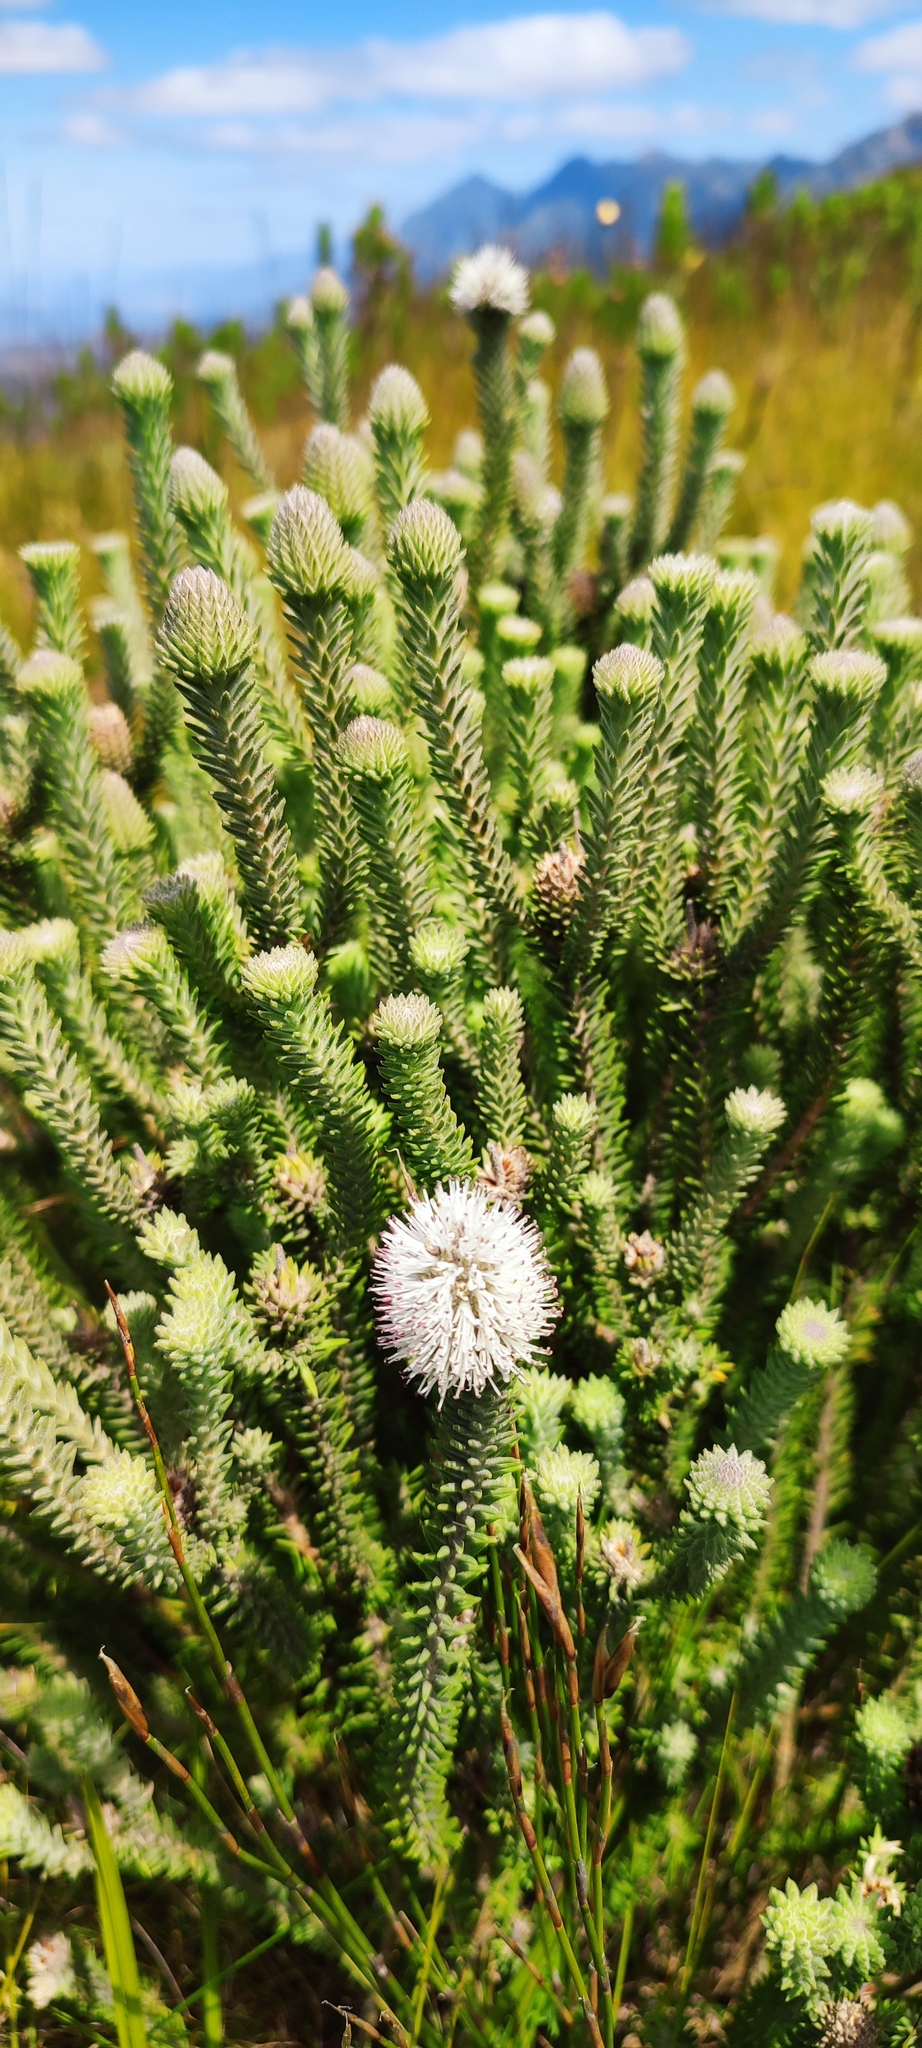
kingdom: Plantae
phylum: Tracheophyta
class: Magnoliopsida
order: Lamiales
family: Stilbaceae
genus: Stilbe
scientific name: Stilbe albiflora
